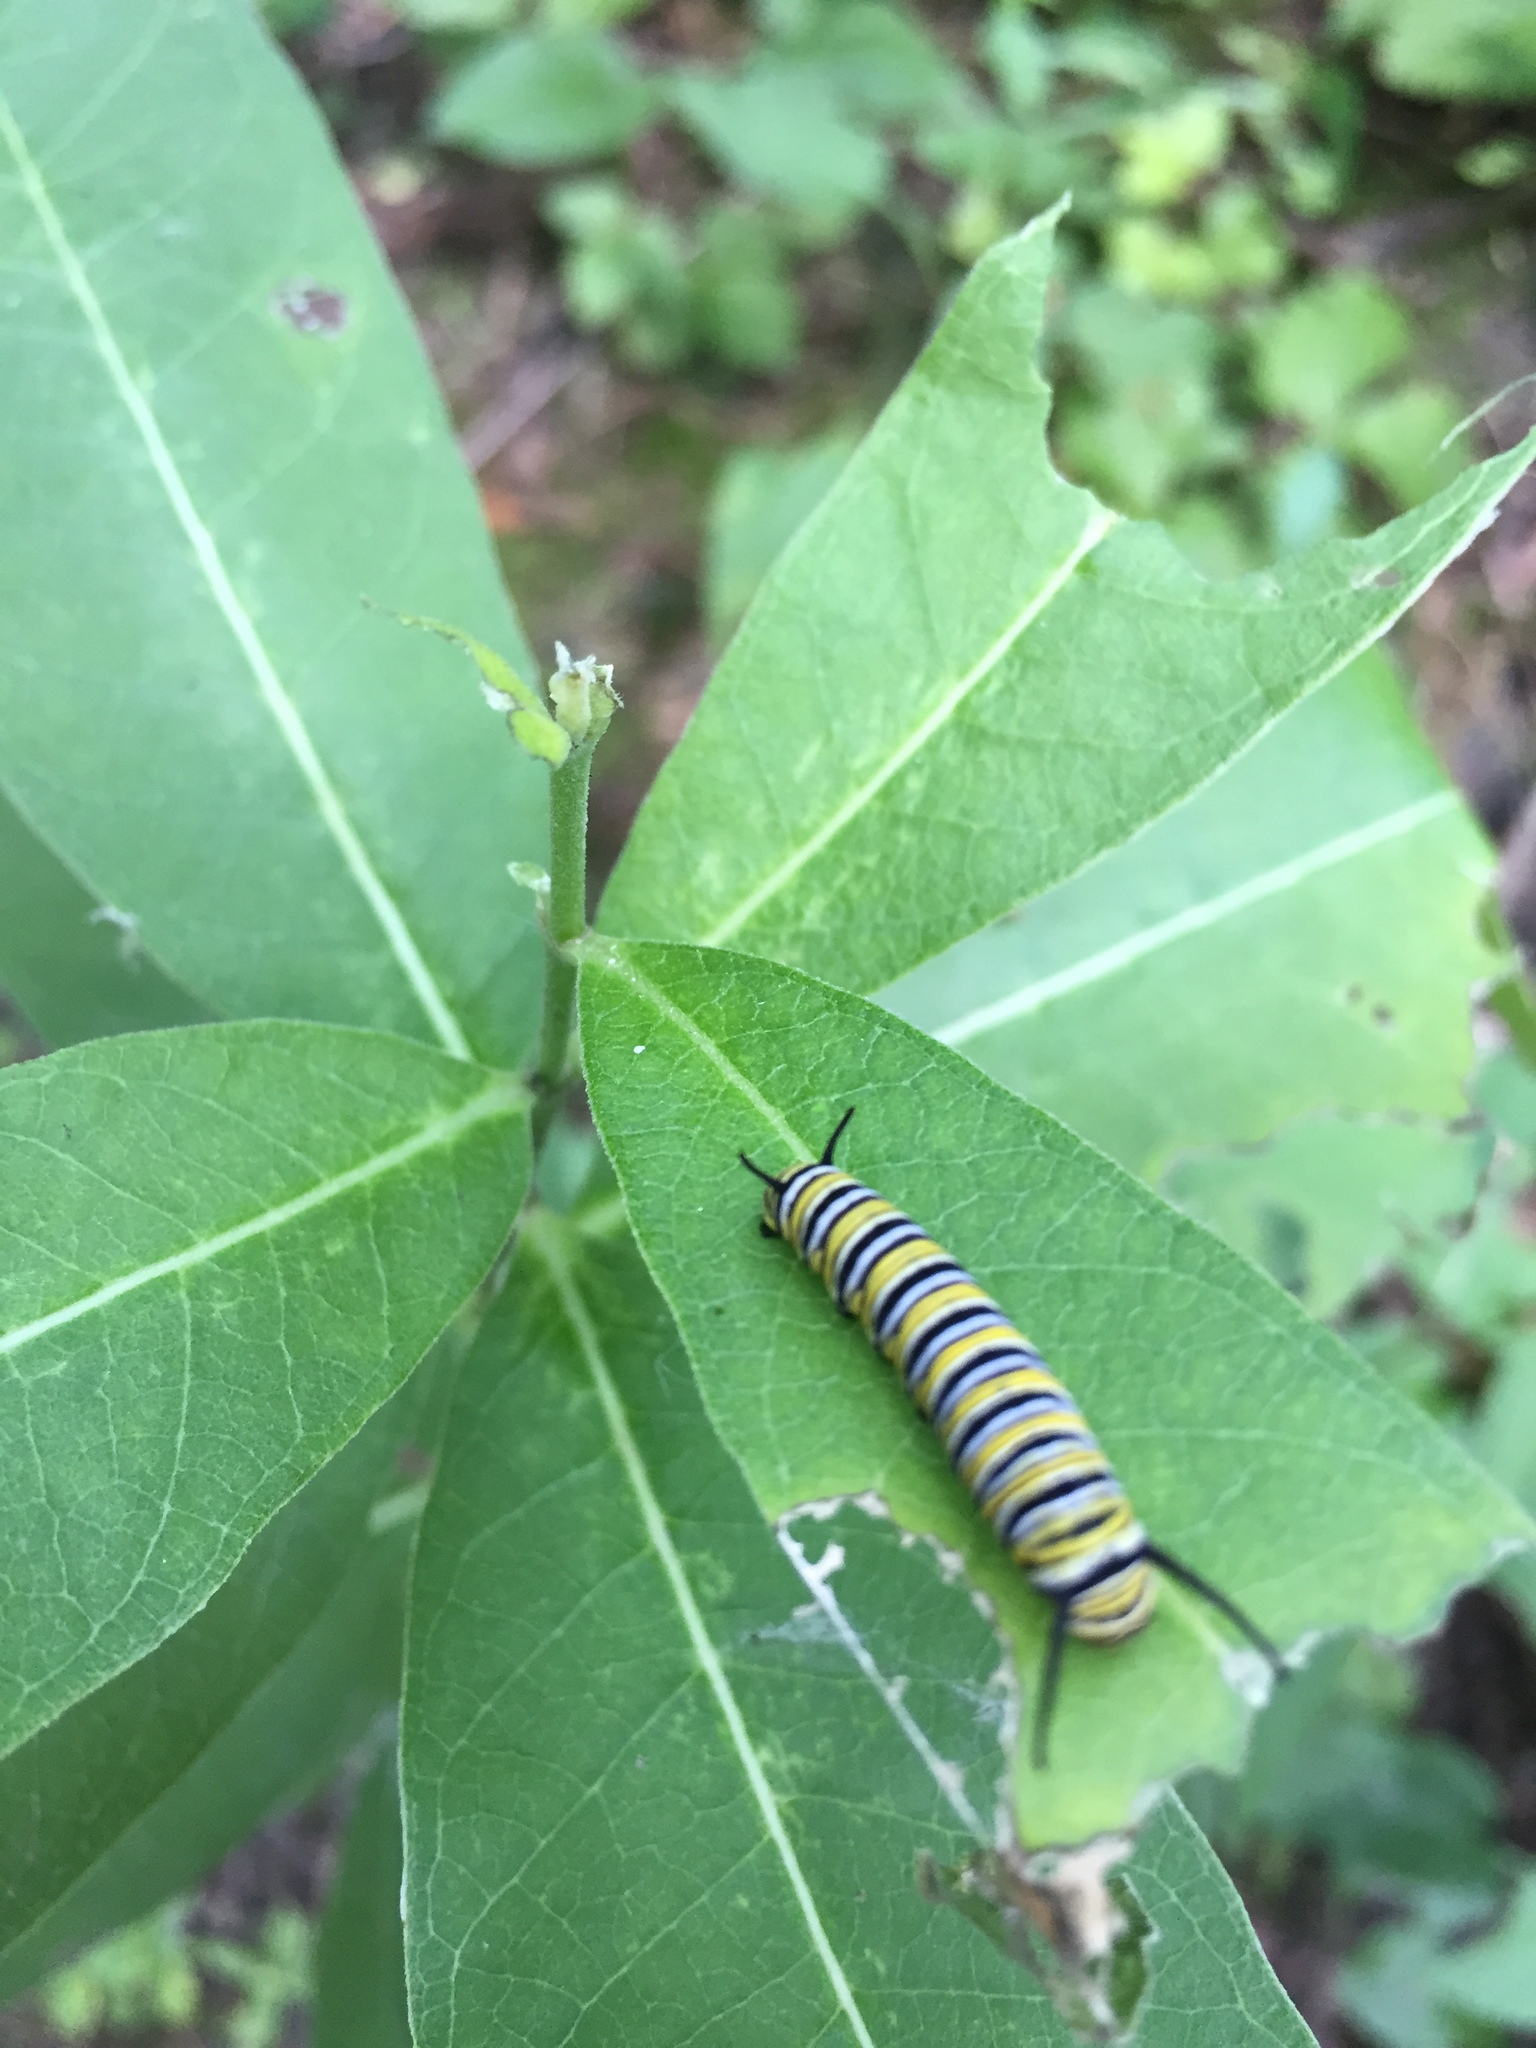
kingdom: Animalia
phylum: Arthropoda
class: Insecta
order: Lepidoptera
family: Nymphalidae
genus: Danaus
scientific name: Danaus plexippus
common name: Monarch
